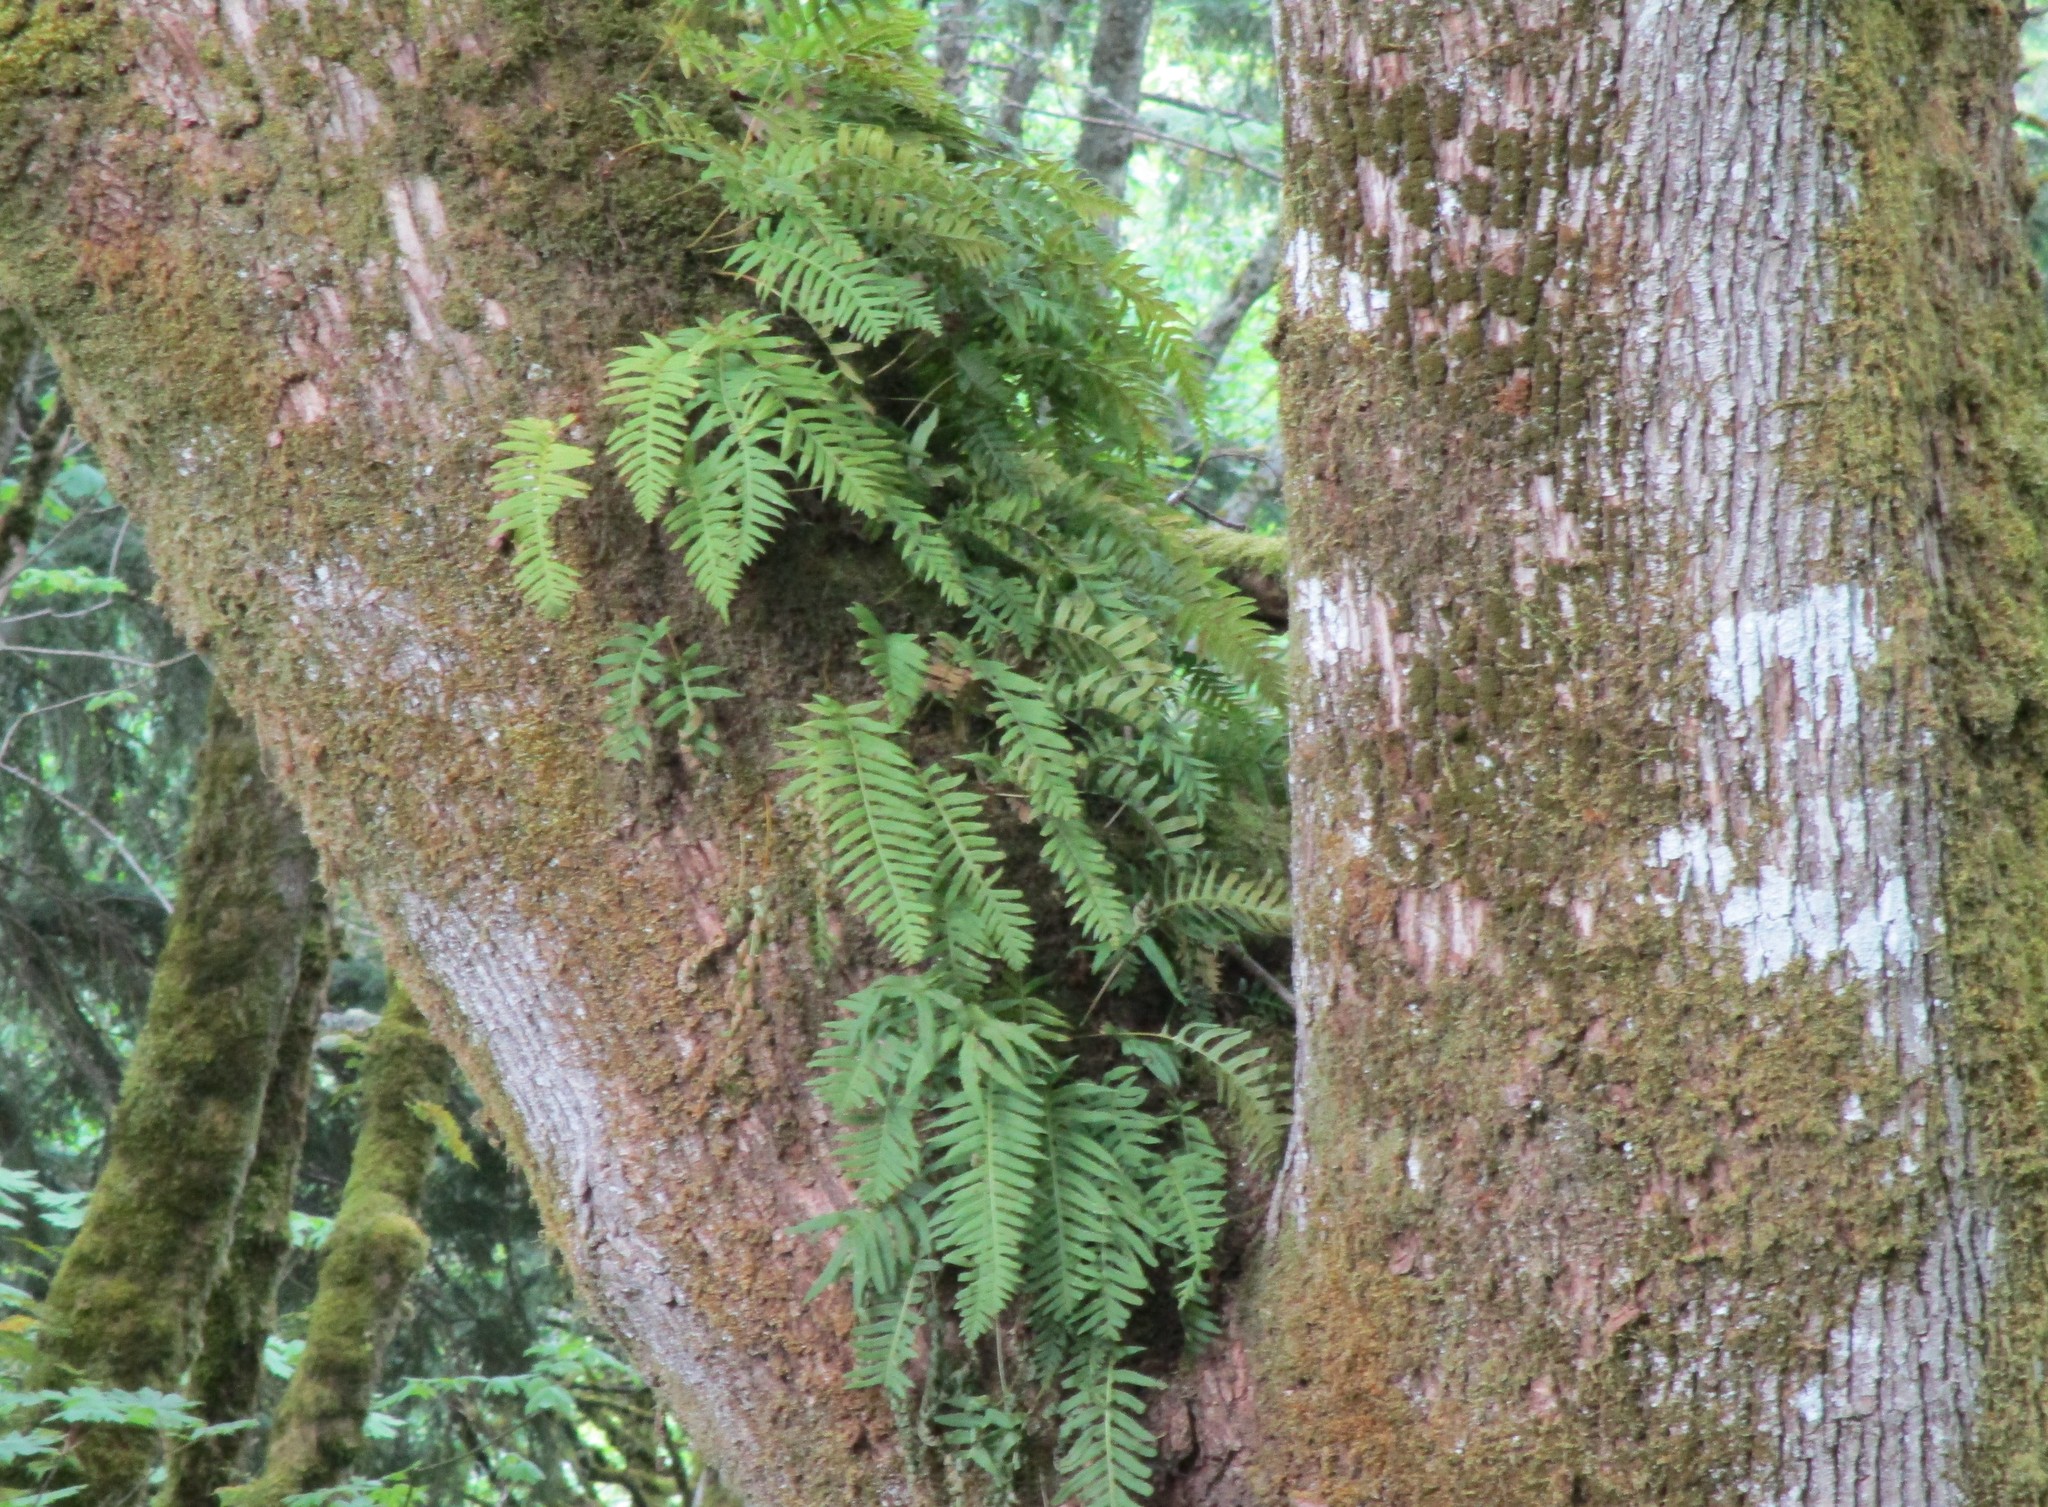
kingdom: Plantae
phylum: Tracheophyta
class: Polypodiopsida
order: Polypodiales
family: Polypodiaceae
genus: Polypodium
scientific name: Polypodium glycyrrhiza
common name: Licorice fern
